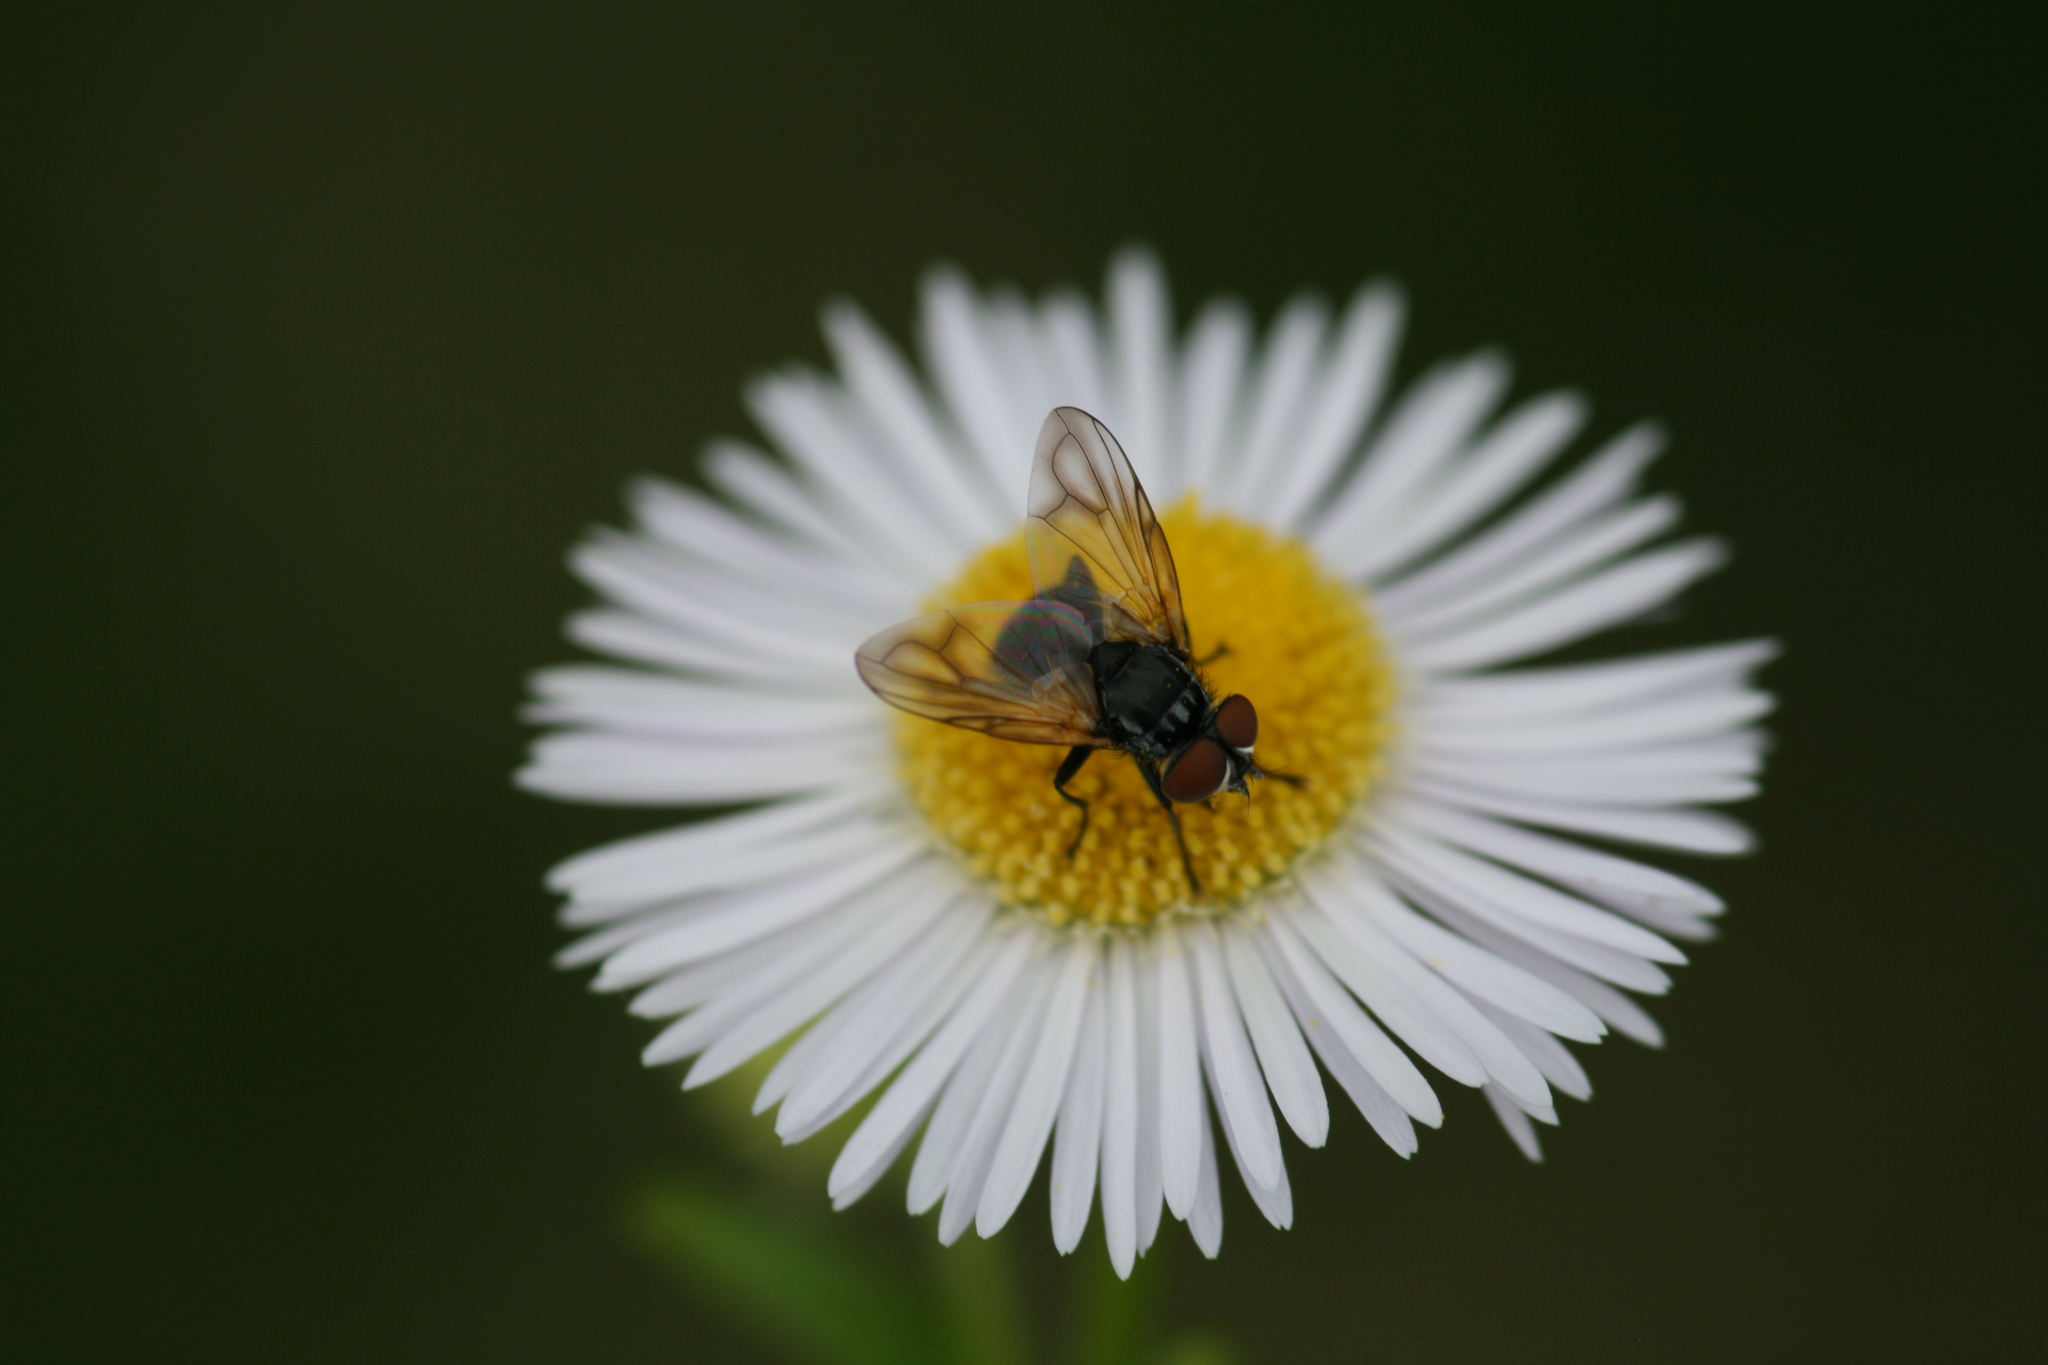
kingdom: Animalia
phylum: Arthropoda
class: Insecta
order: Diptera
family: Tachinidae
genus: Phasia
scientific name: Phasia obesa
